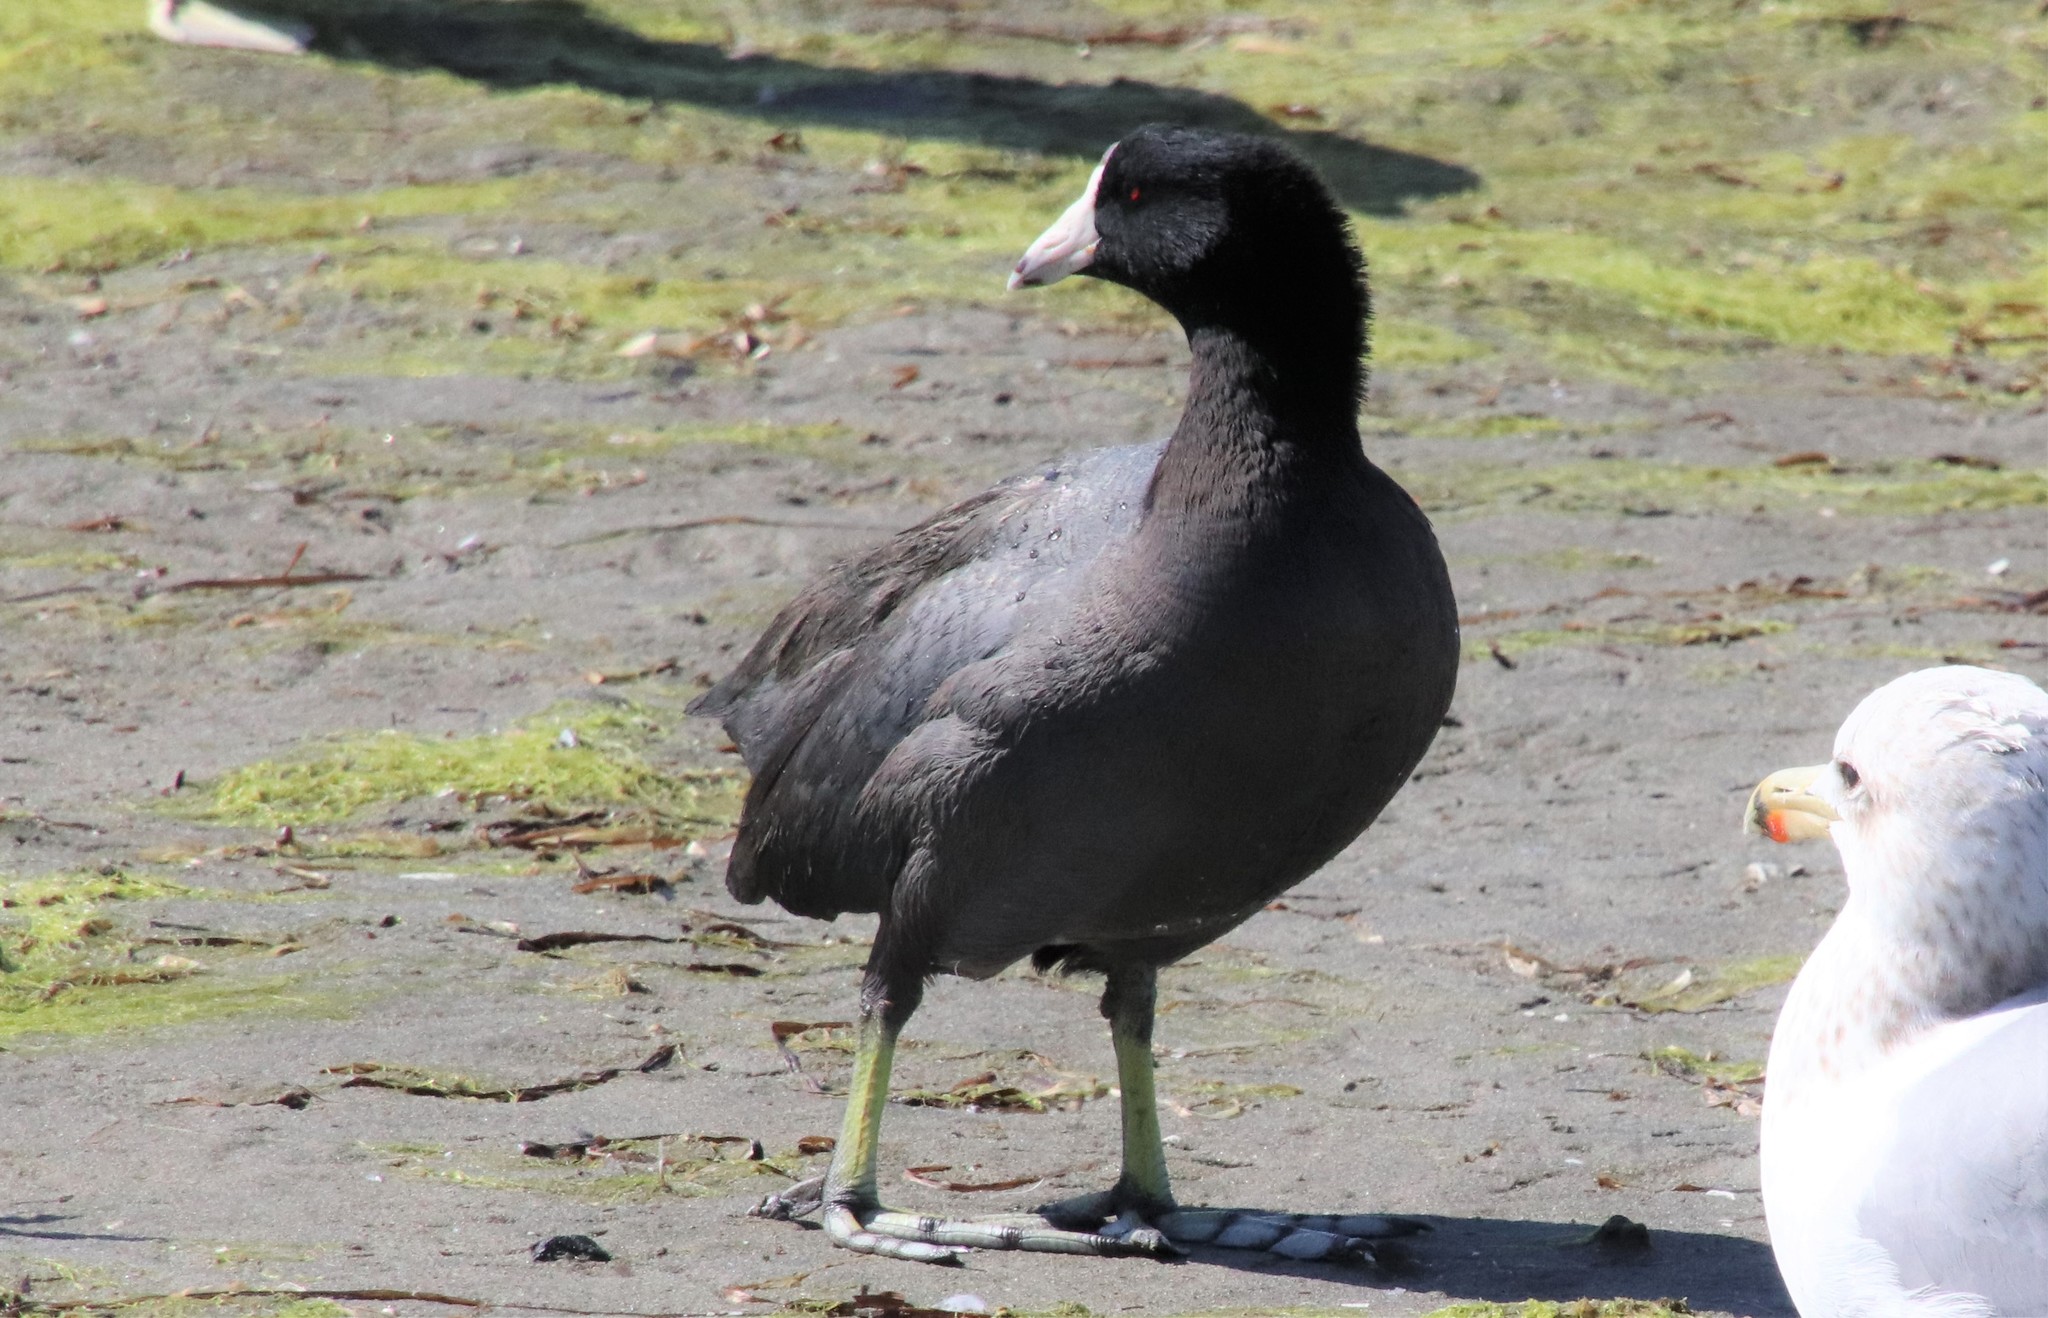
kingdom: Animalia
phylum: Chordata
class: Aves
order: Gruiformes
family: Rallidae
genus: Fulica
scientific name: Fulica americana
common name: American coot
